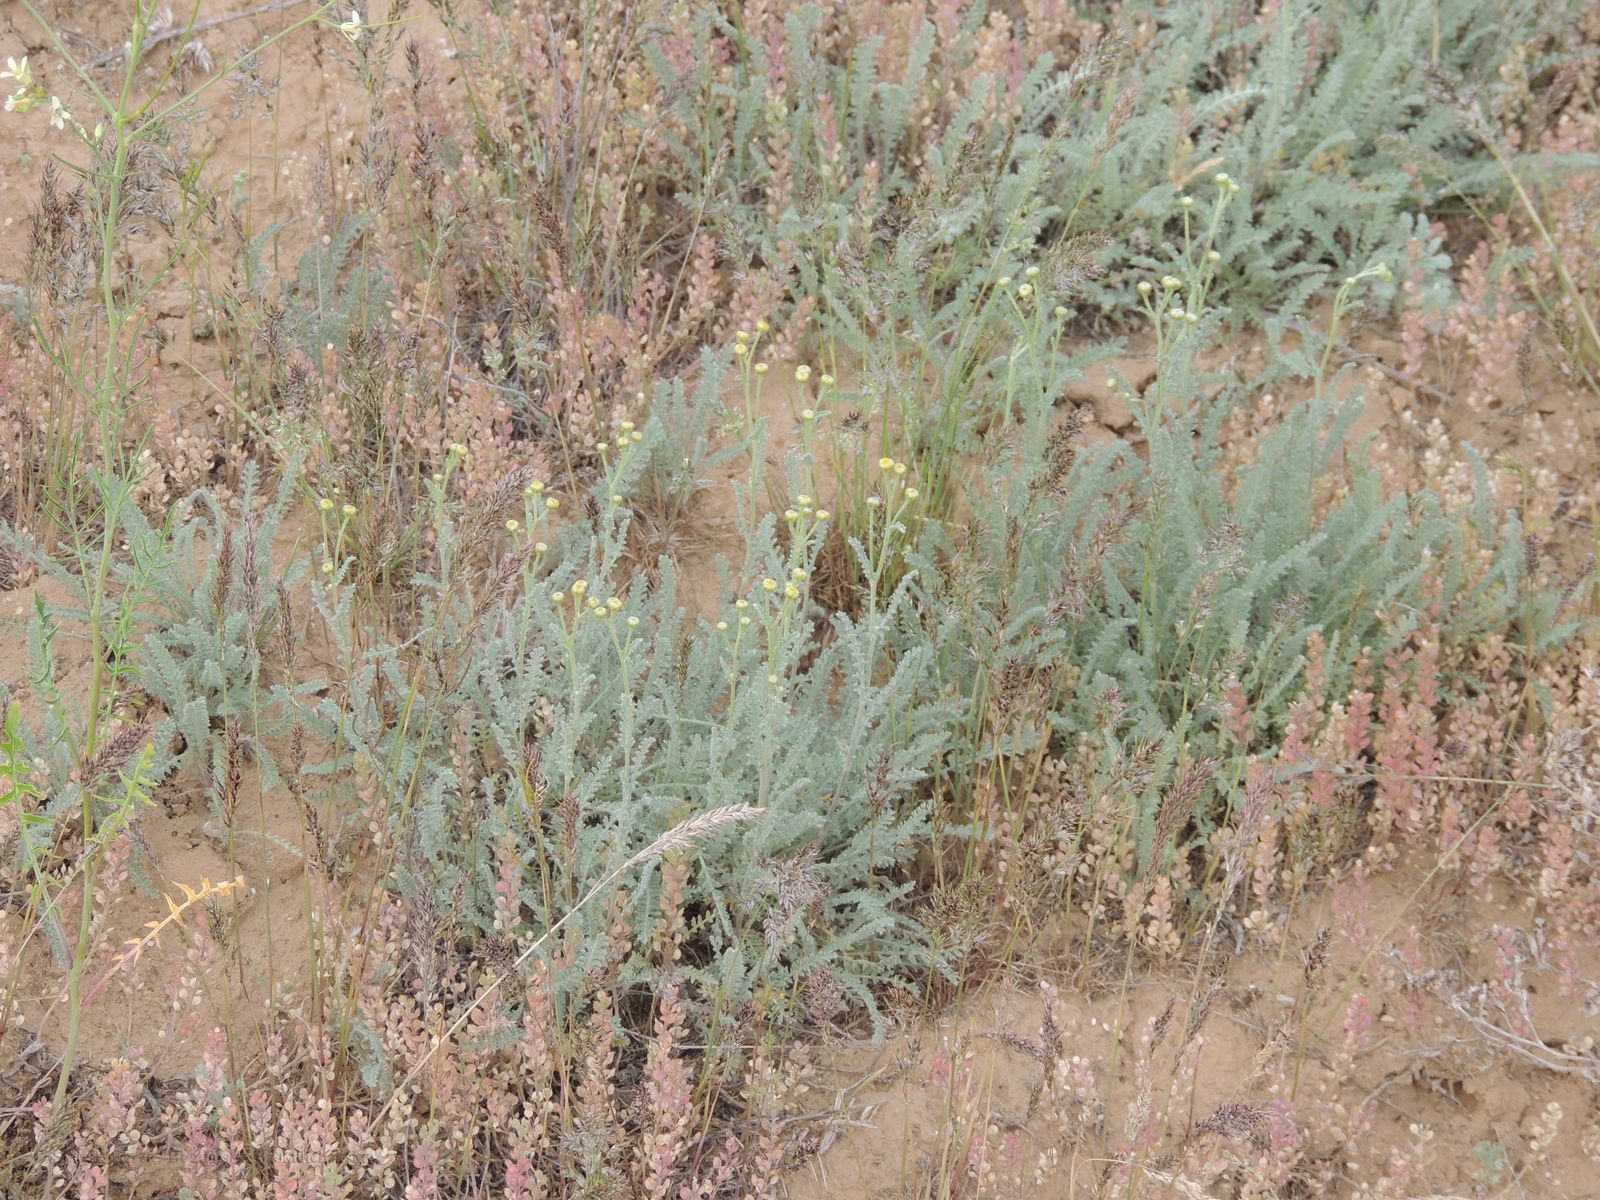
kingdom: Plantae
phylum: Tracheophyta
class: Magnoliopsida
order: Asterales
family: Asteraceae
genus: Tanacetum
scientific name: Tanacetum achilleifolium
